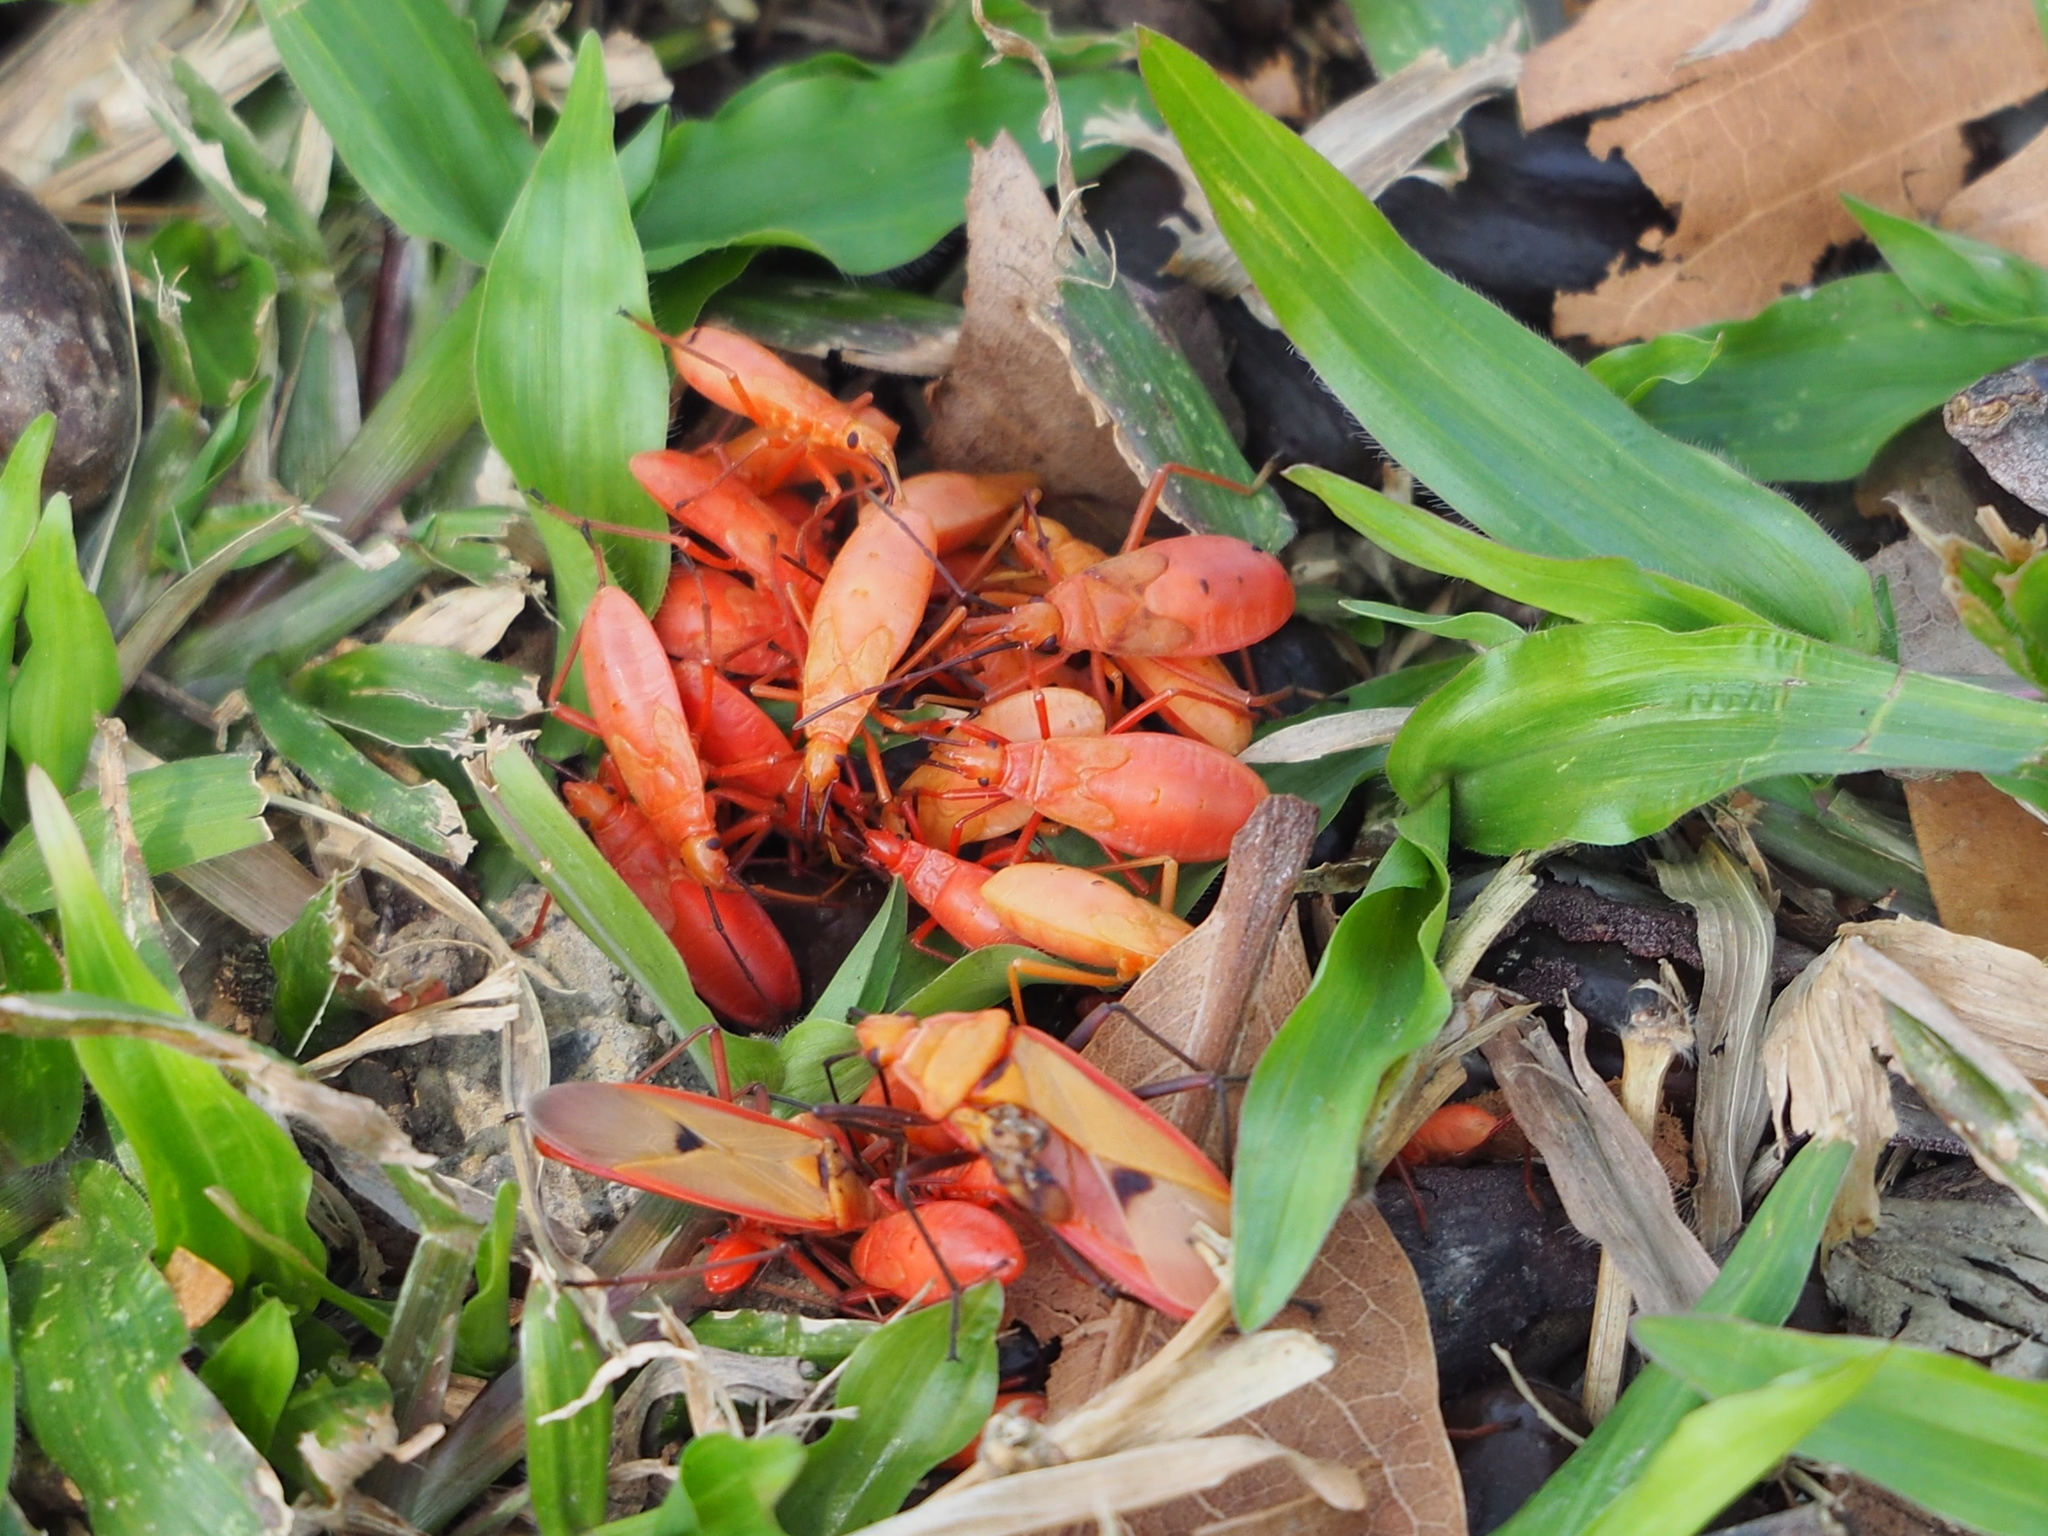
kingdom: Animalia
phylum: Arthropoda
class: Insecta
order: Hemiptera
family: Pyrrhocoridae
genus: Dysdercus
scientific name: Dysdercus fuscomaculatus
